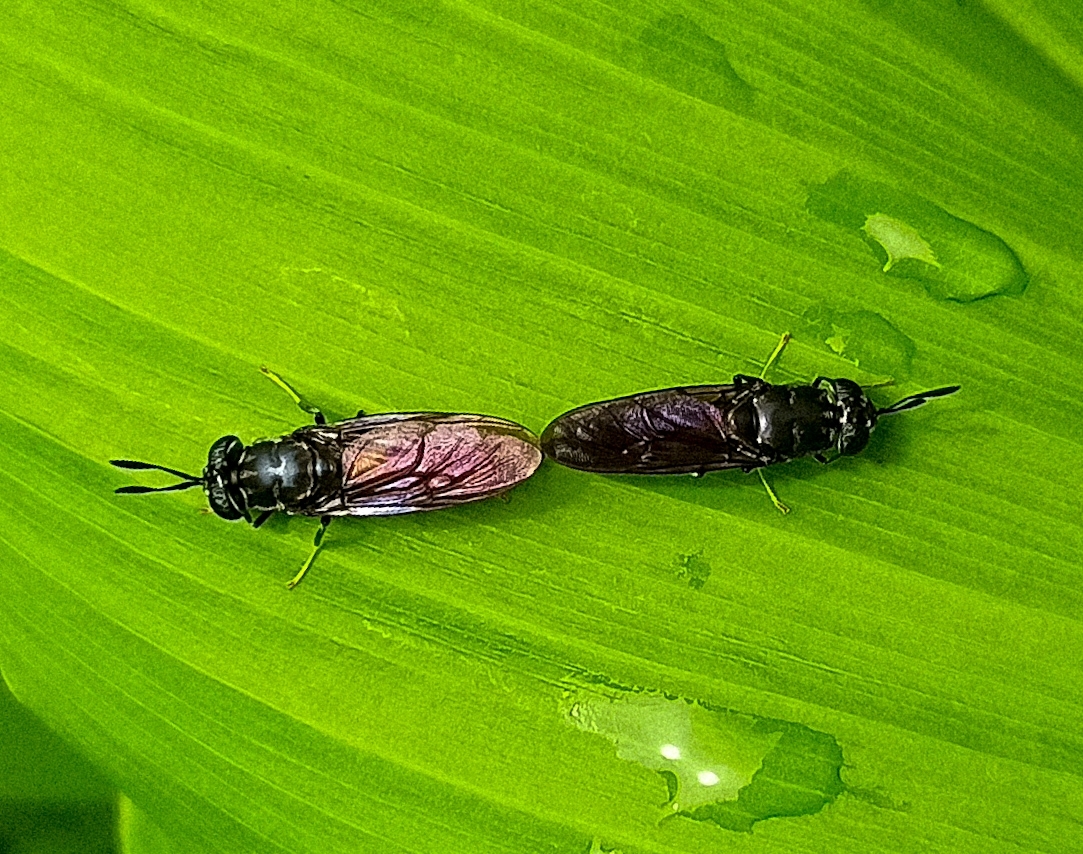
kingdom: Animalia
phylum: Arthropoda
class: Insecta
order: Diptera
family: Stratiomyidae
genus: Hermetia
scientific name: Hermetia illucens
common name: Black soldier fly
